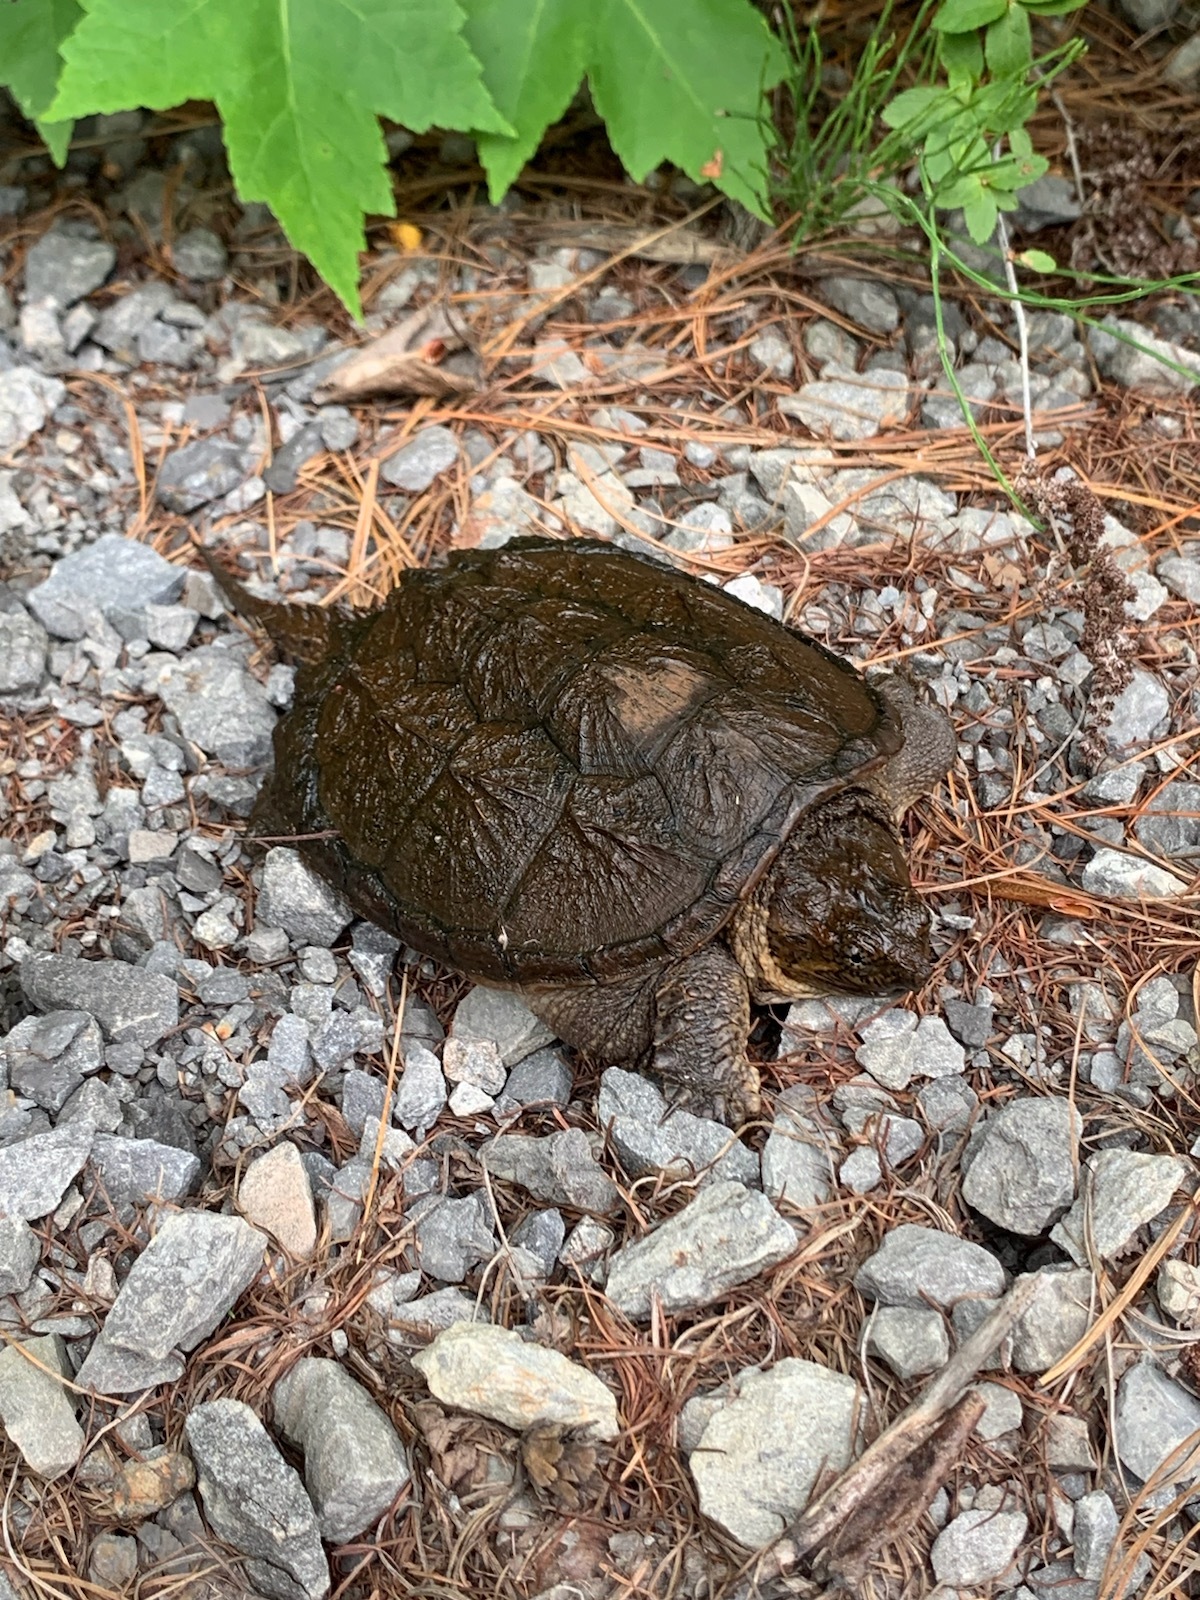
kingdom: Animalia
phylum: Chordata
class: Testudines
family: Chelydridae
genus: Chelydra
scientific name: Chelydra serpentina
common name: Common snapping turtle
